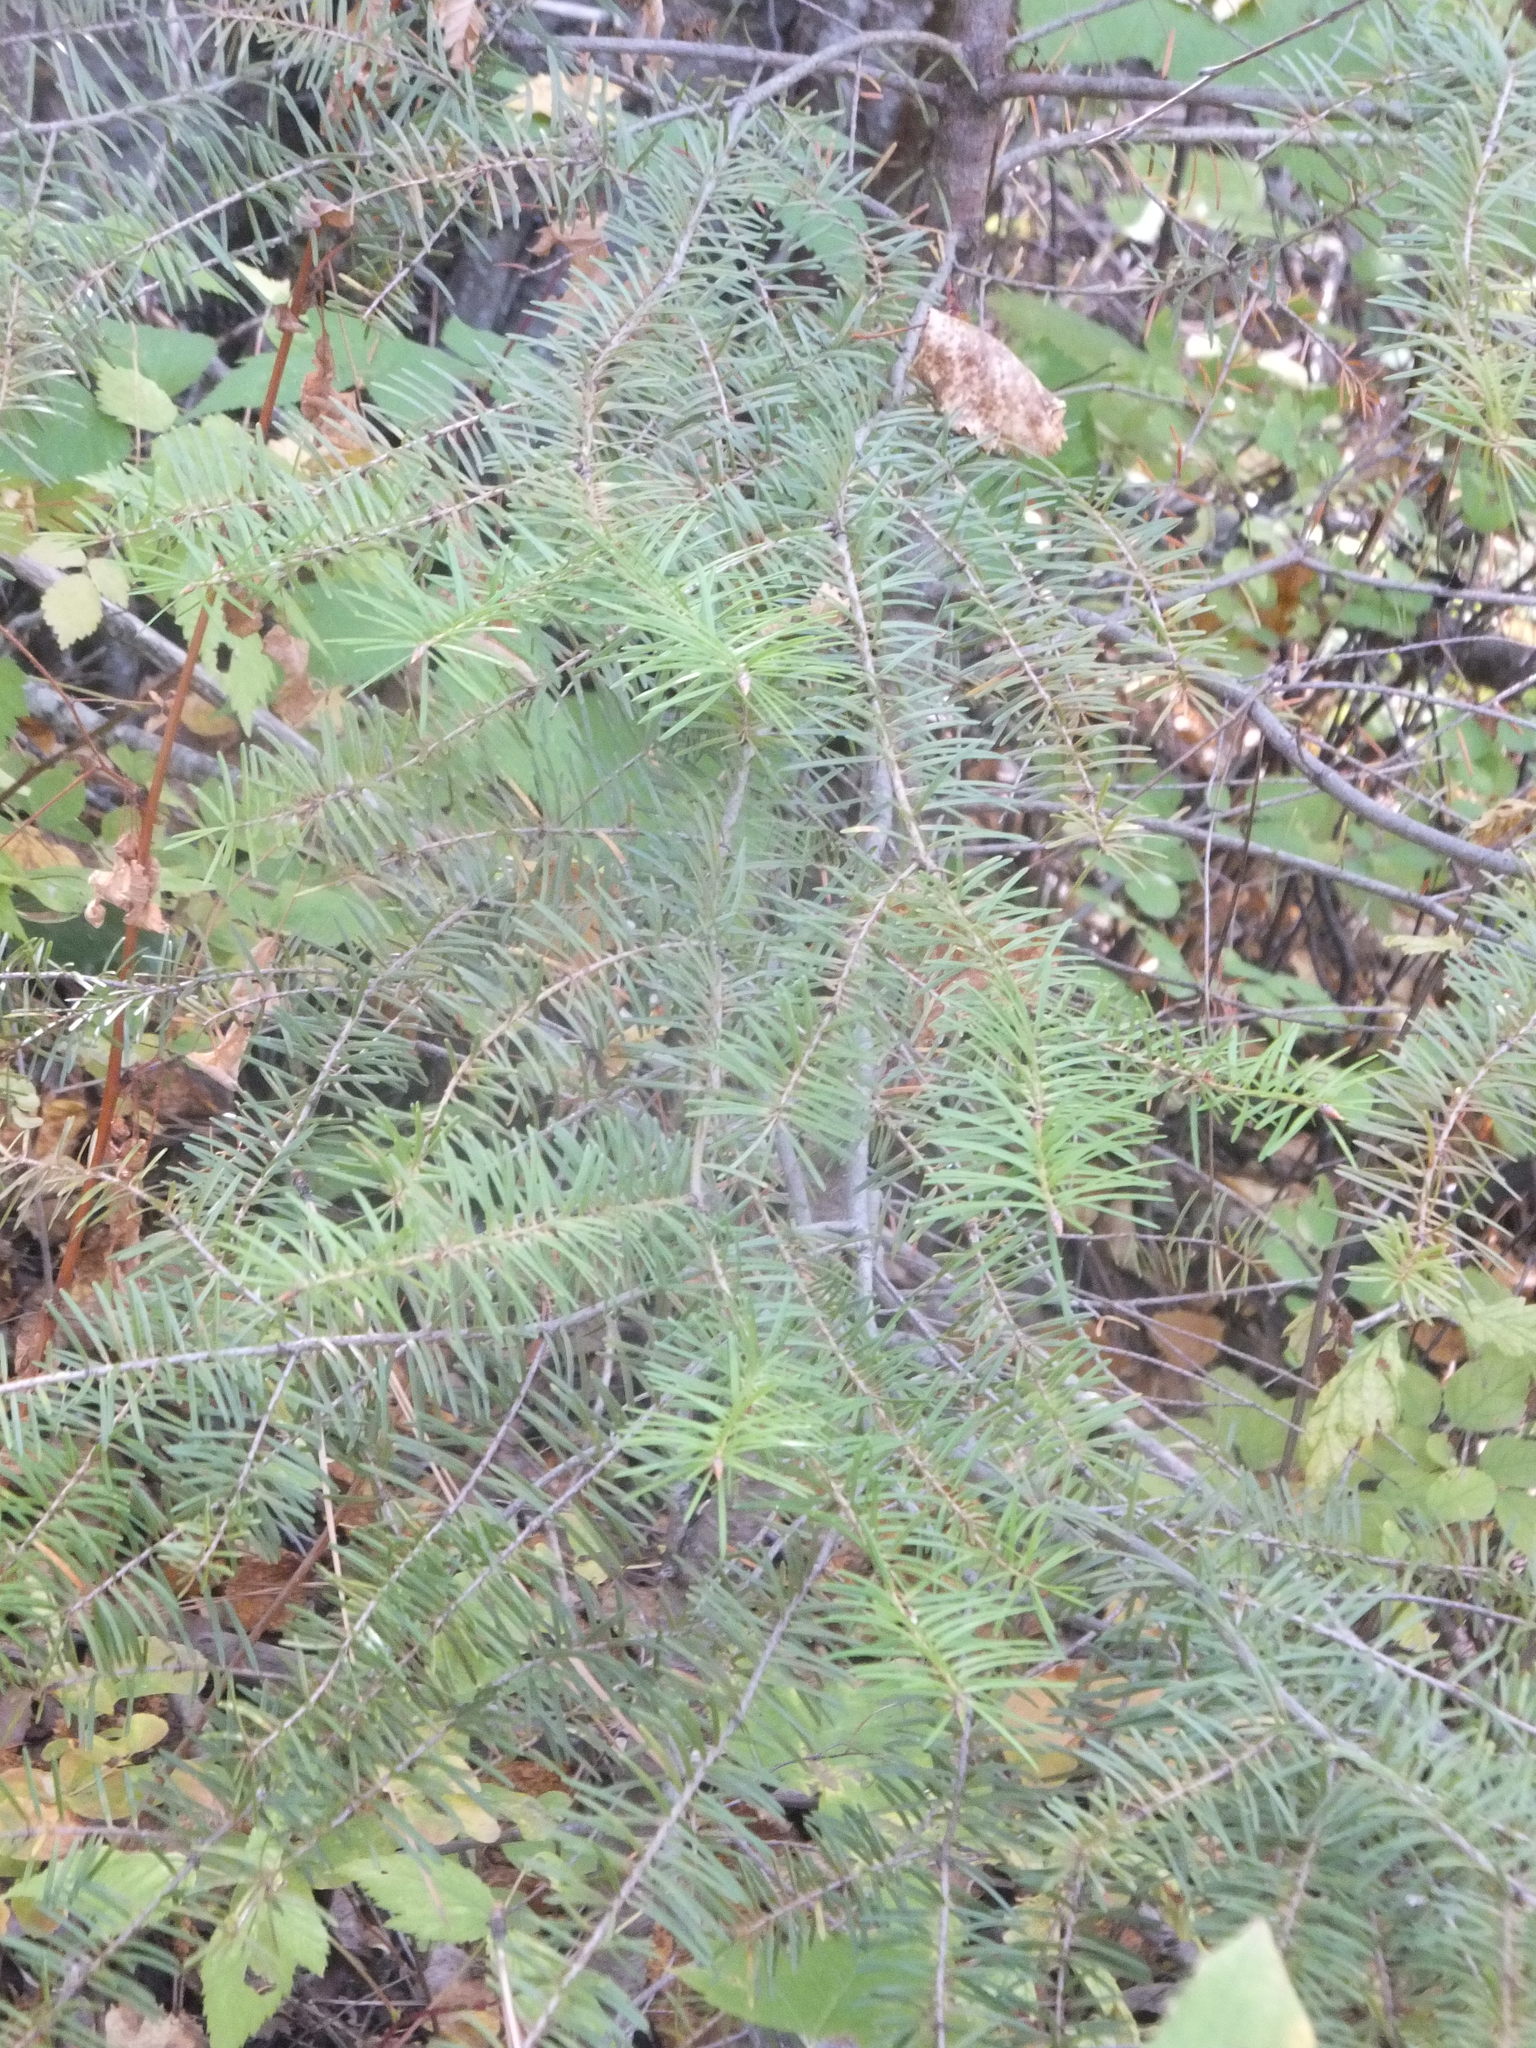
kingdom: Plantae
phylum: Tracheophyta
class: Pinopsida
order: Pinales
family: Pinaceae
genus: Pseudotsuga
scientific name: Pseudotsuga menziesii
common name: Douglas fir
